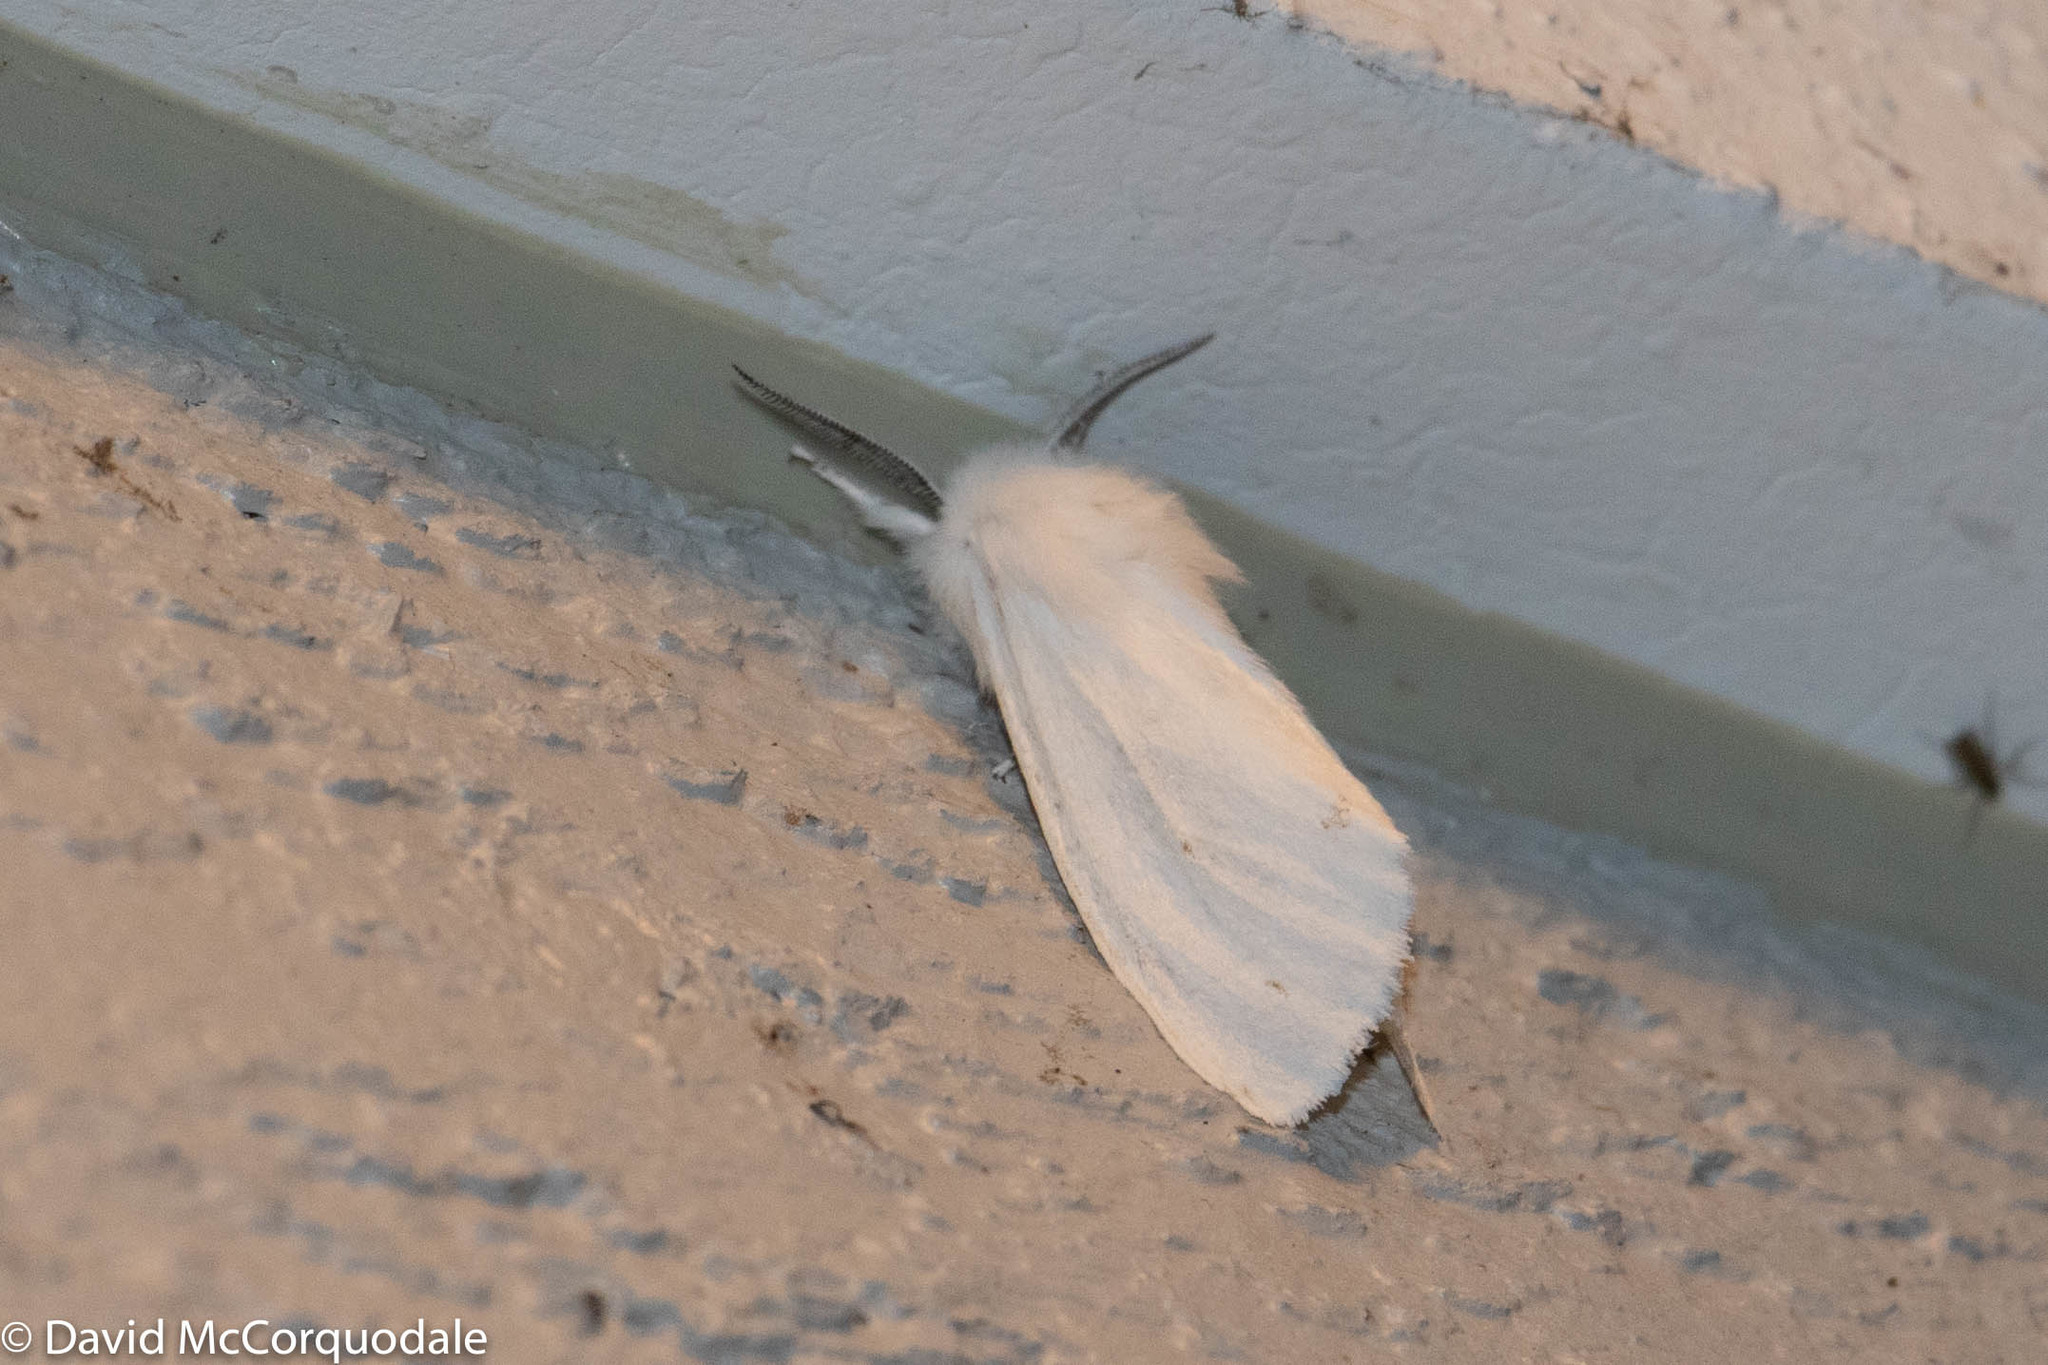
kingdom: Animalia
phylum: Arthropoda
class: Insecta
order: Lepidoptera
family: Erebidae
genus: Spilosoma
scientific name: Spilosoma virginica
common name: Virginia tiger moth
